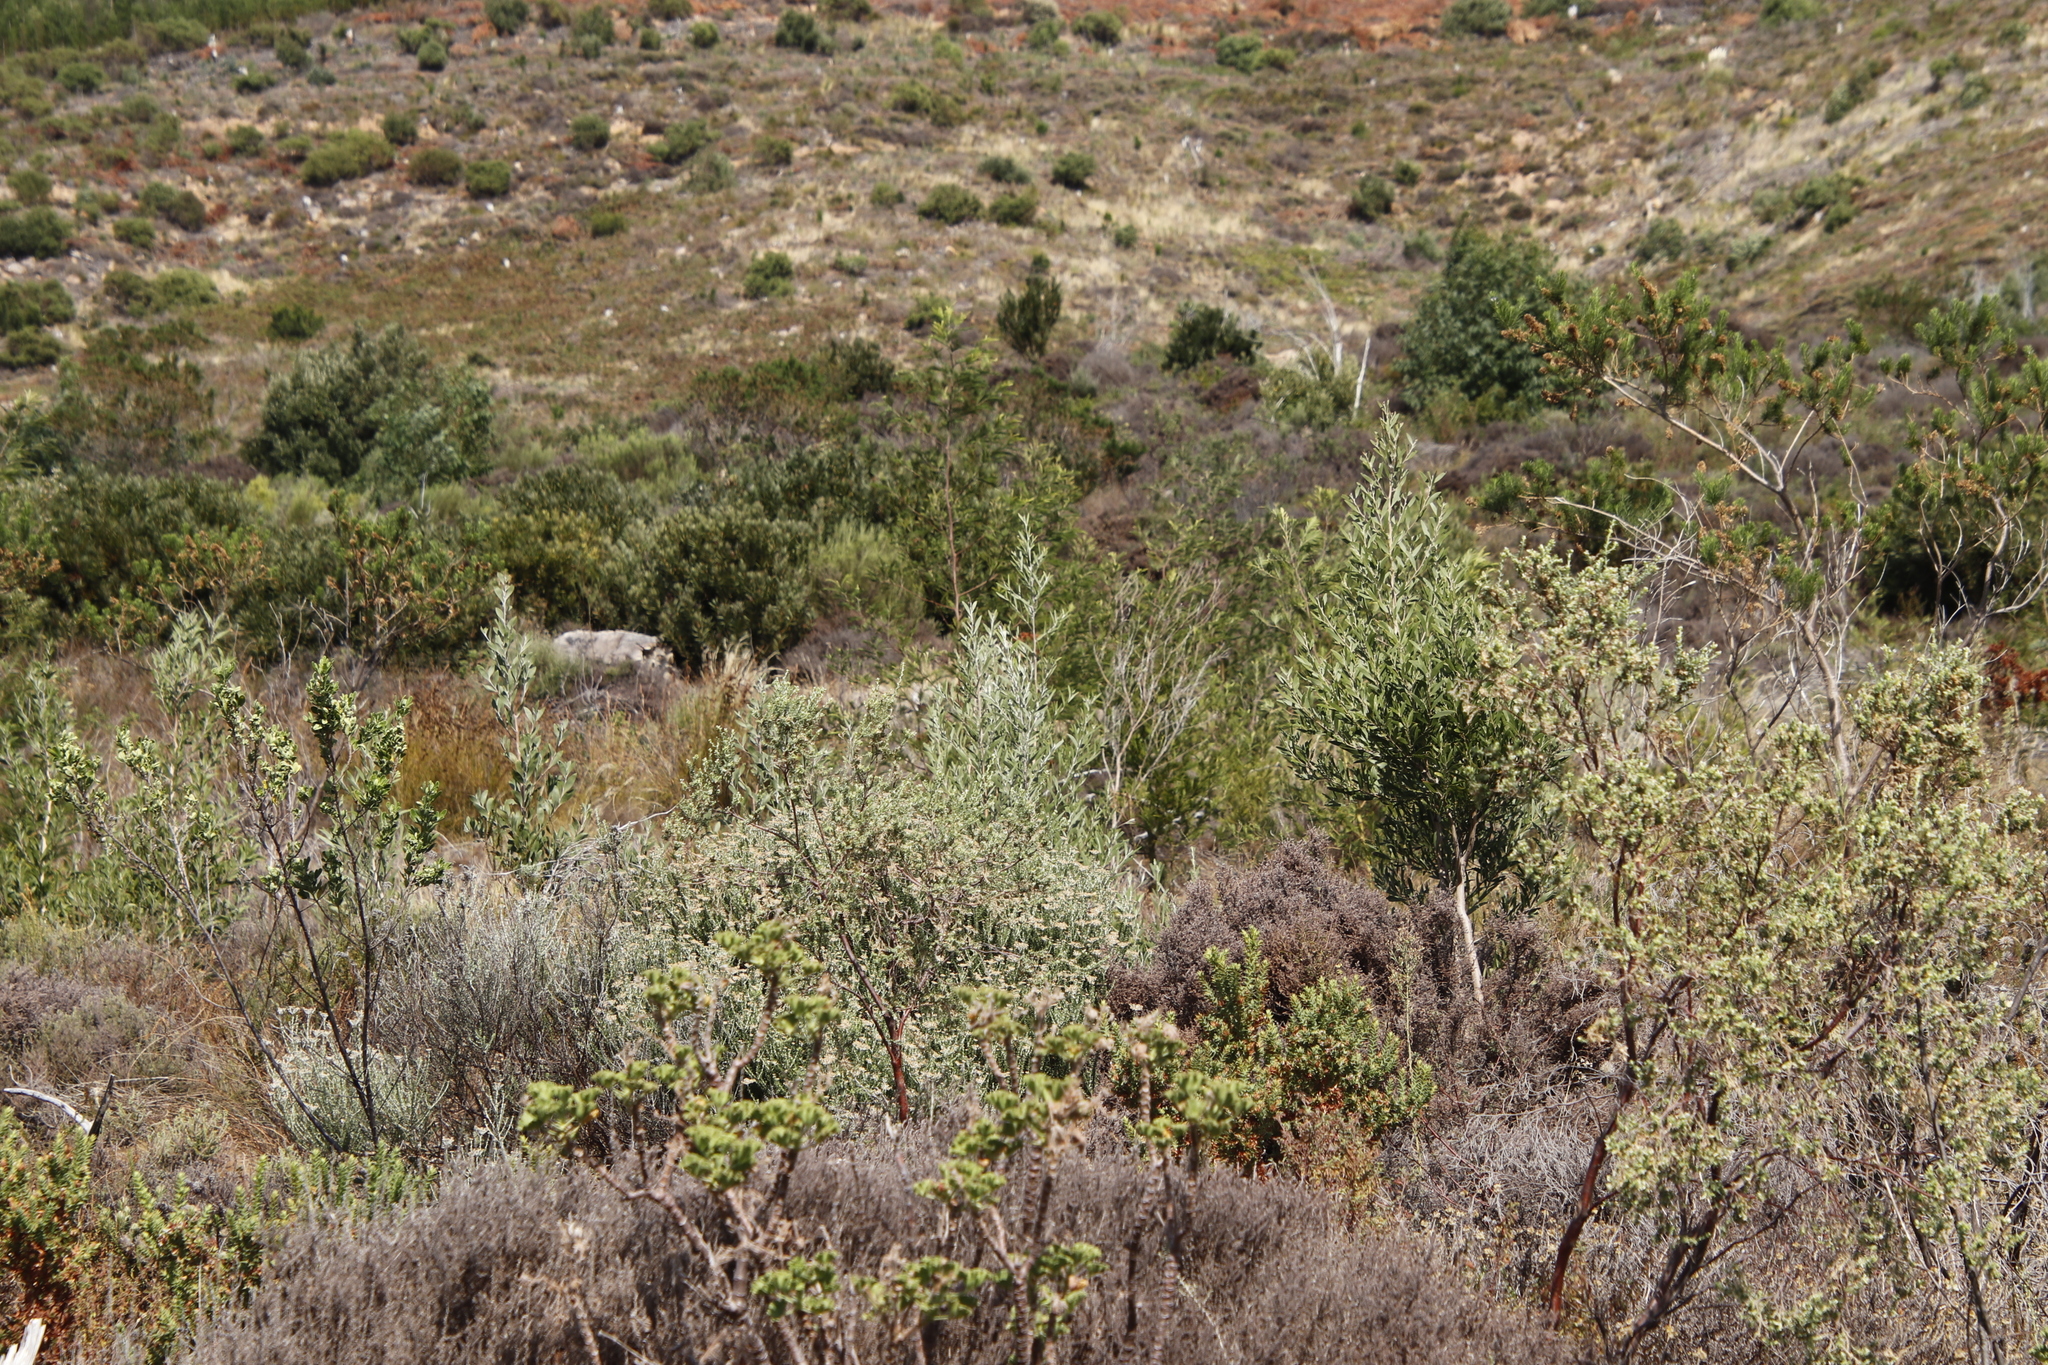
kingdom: Plantae
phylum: Tracheophyta
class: Magnoliopsida
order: Fabales
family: Fabaceae
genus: Acacia
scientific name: Acacia melanoxylon
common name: Blackwood
